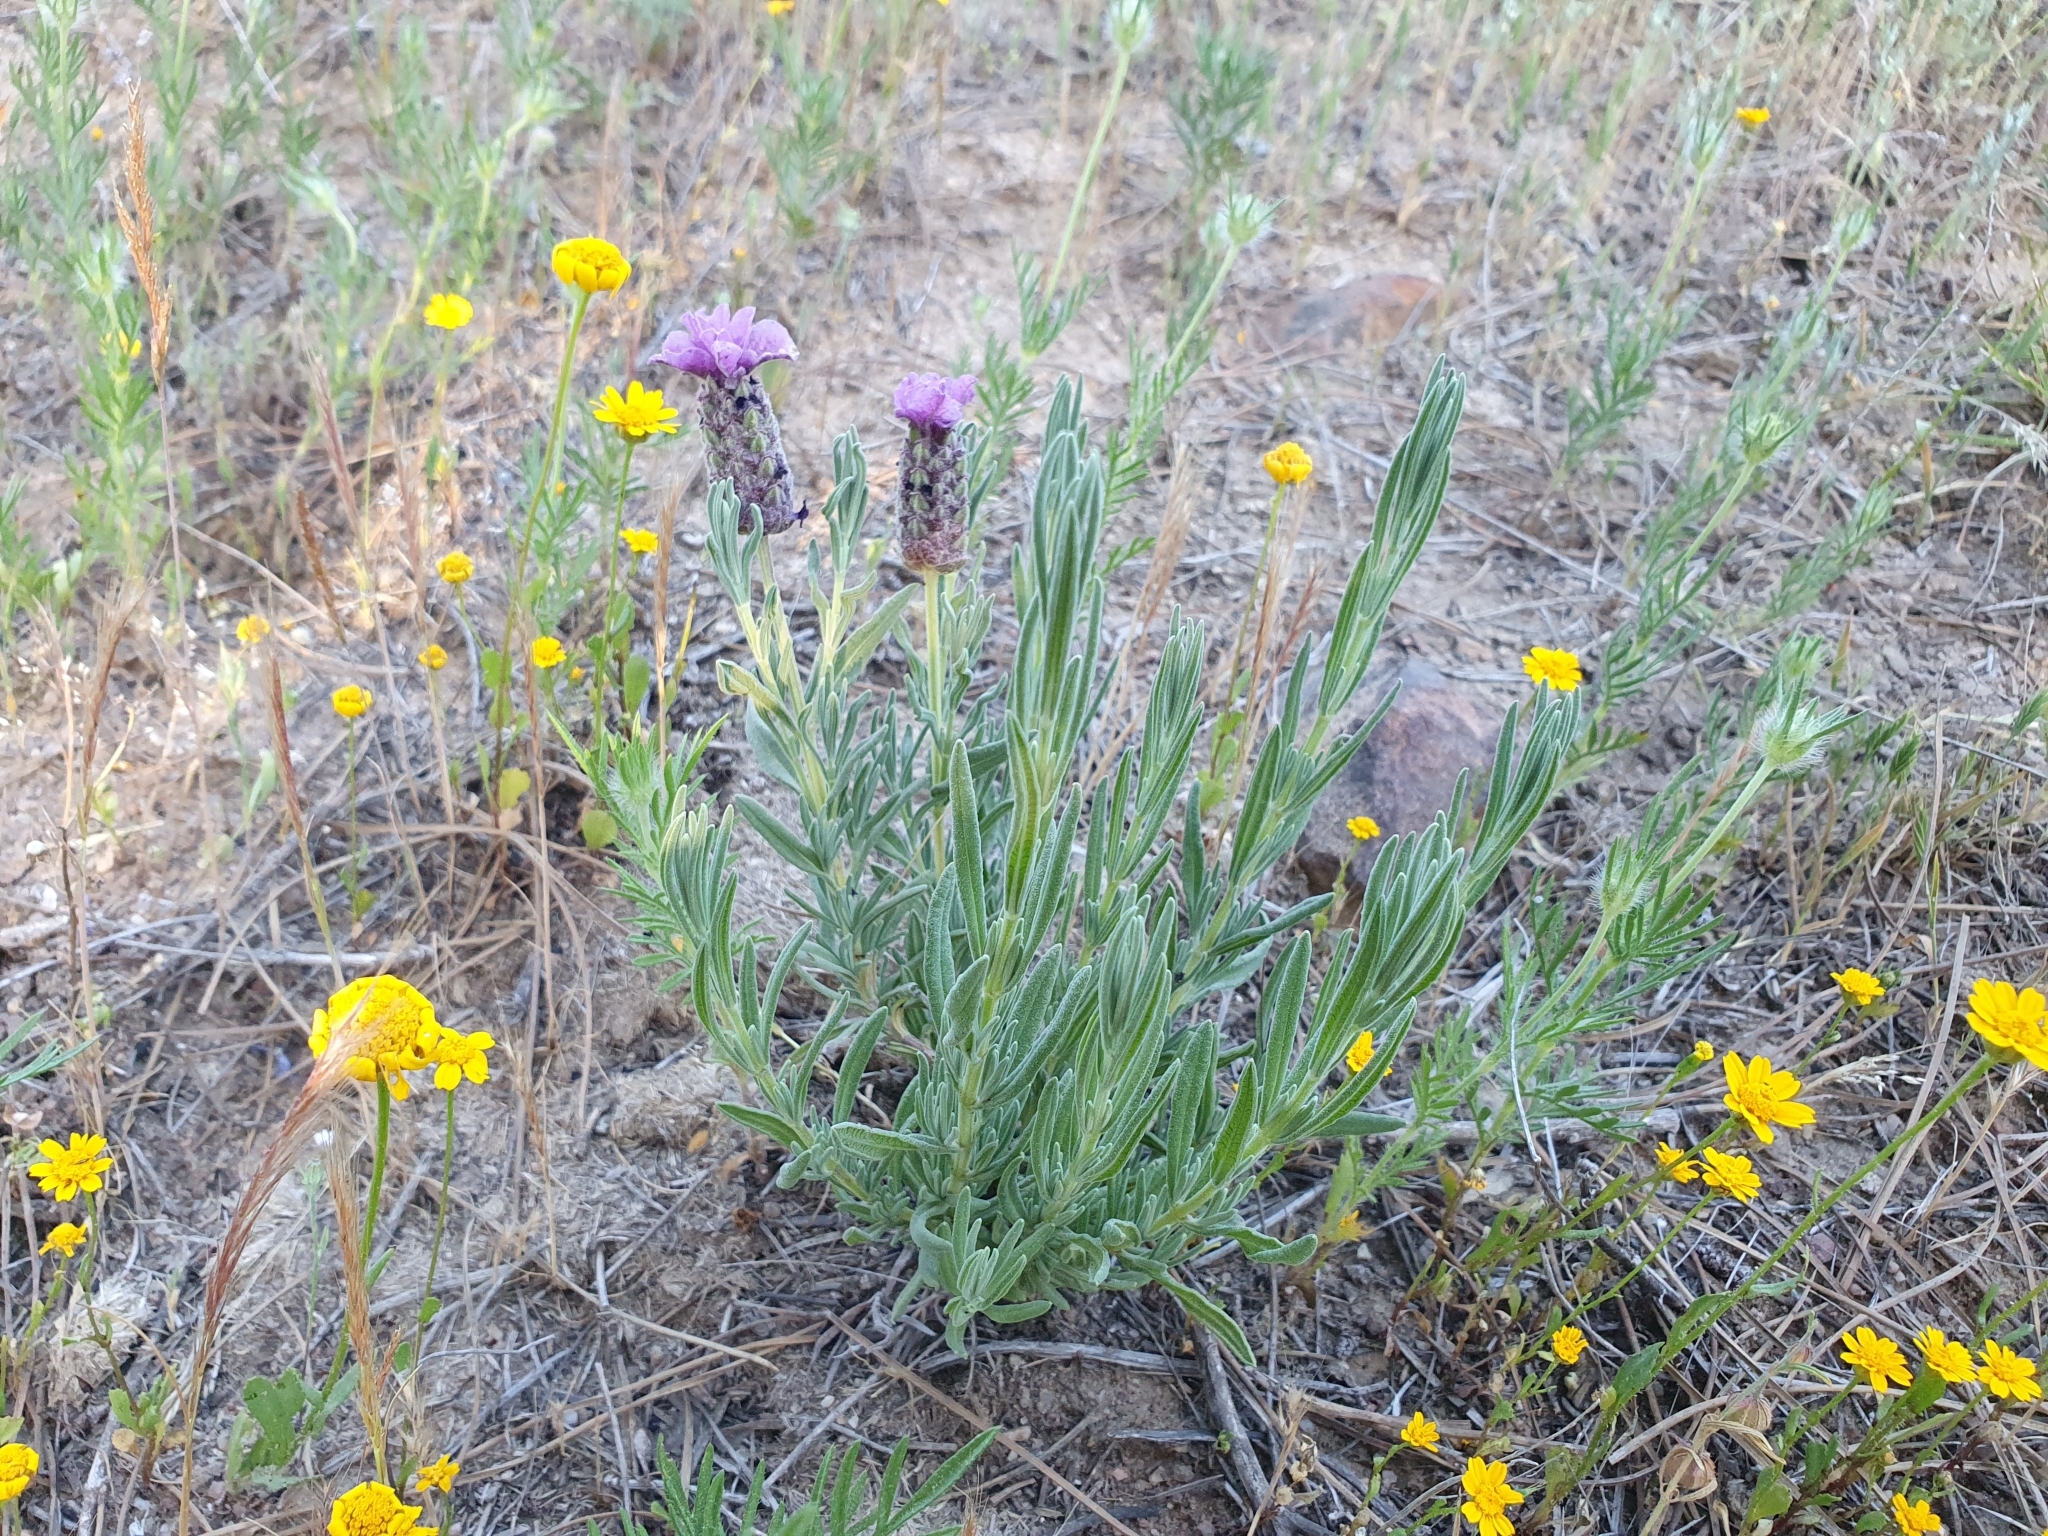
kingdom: Plantae
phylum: Tracheophyta
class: Magnoliopsida
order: Lamiales
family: Lamiaceae
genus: Lavandula
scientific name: Lavandula stoechas
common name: French lavender
